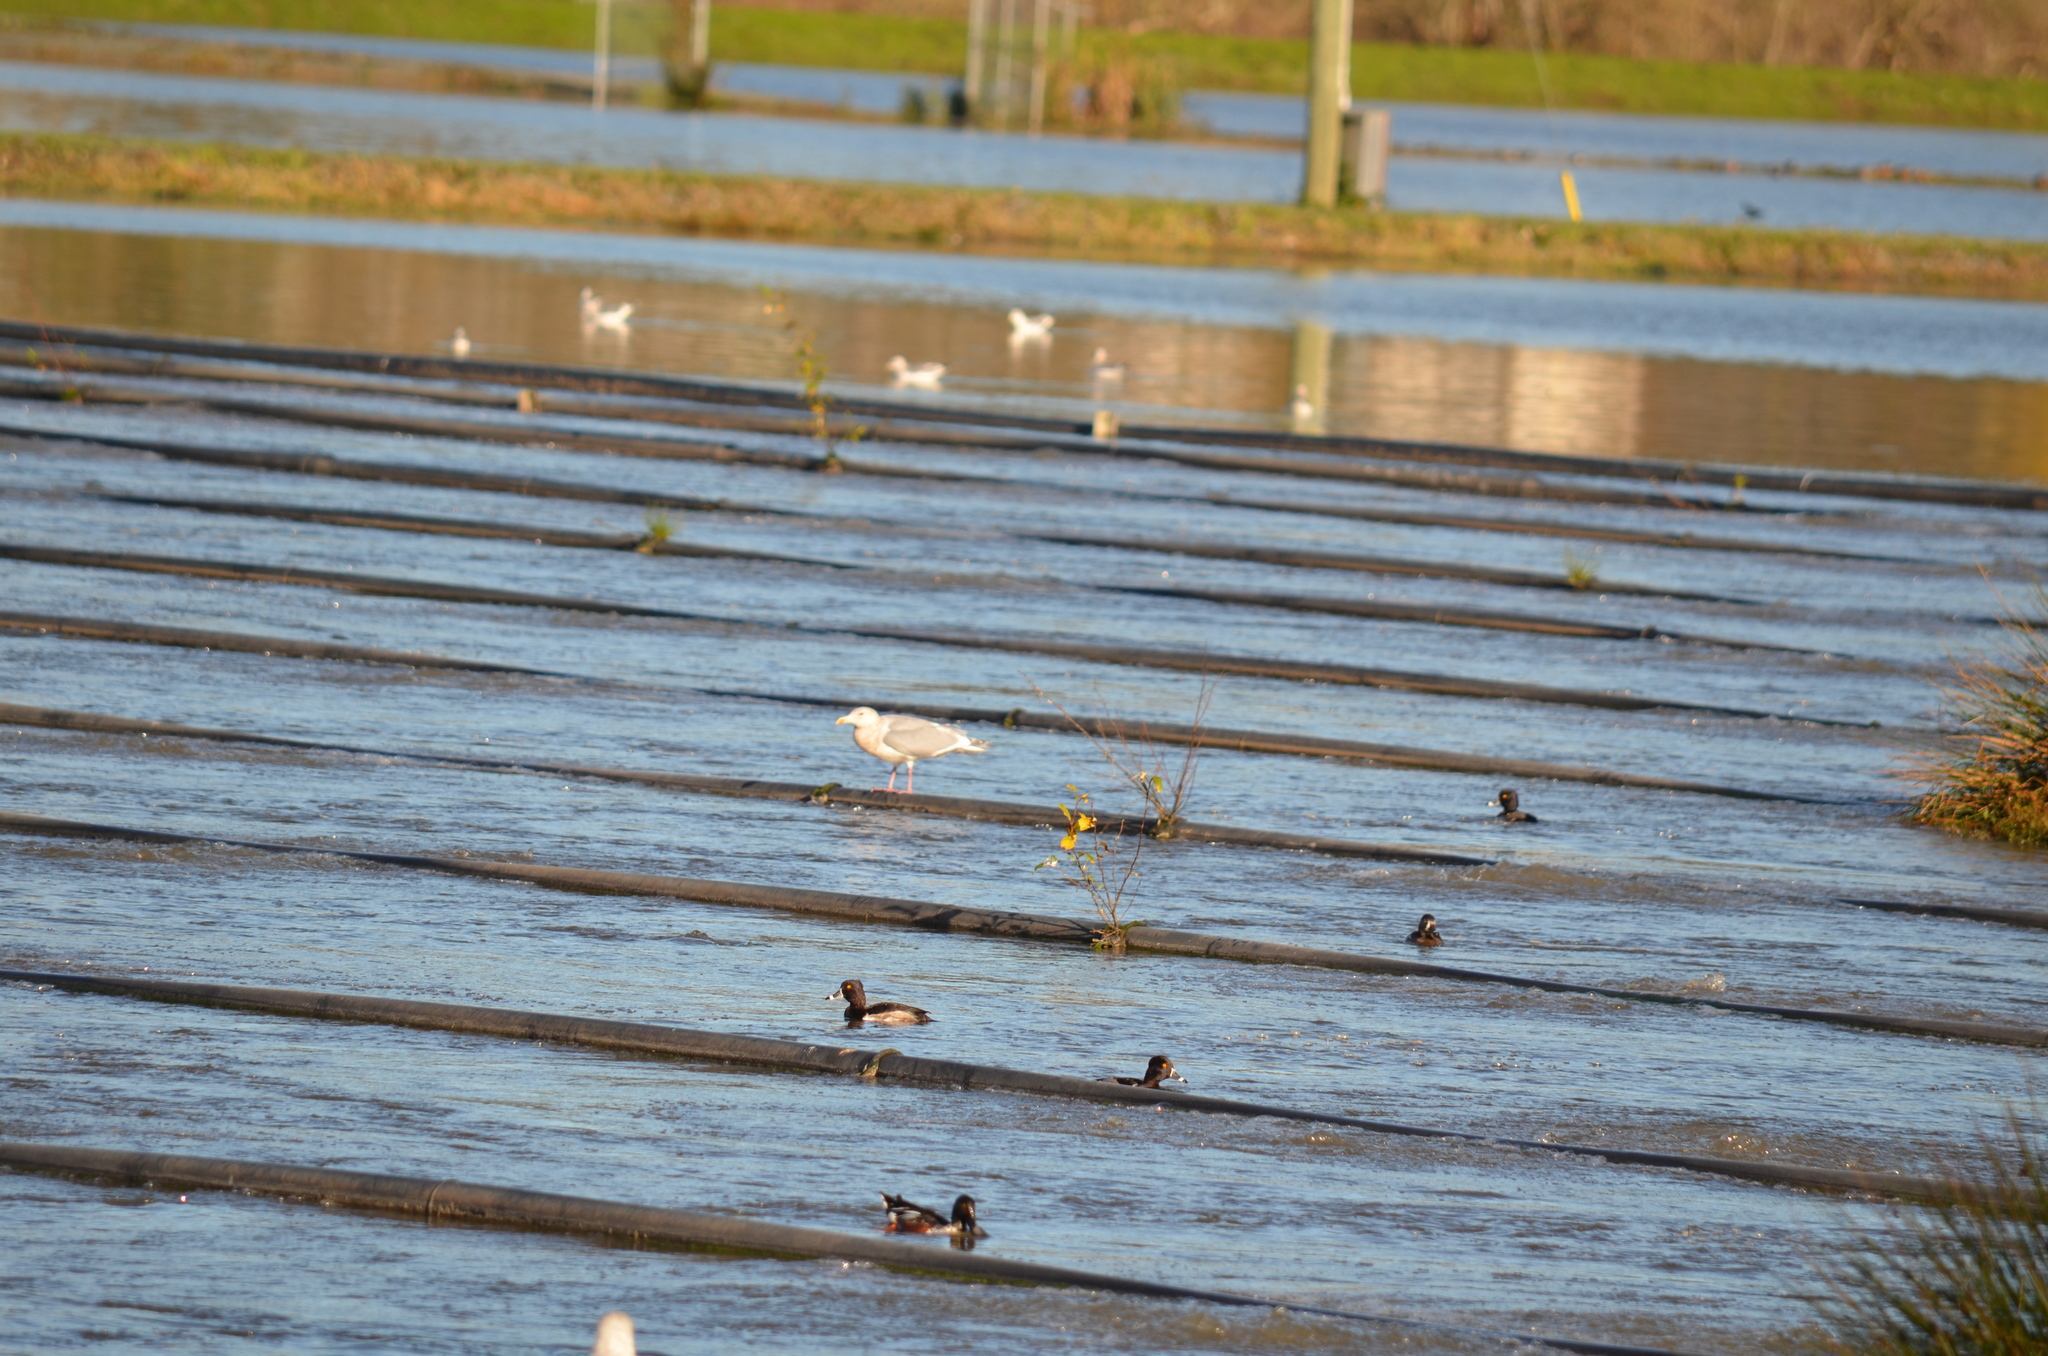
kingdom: Animalia
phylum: Chordata
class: Aves
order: Anseriformes
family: Anatidae
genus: Aythya
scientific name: Aythya collaris
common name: Ring-necked duck
